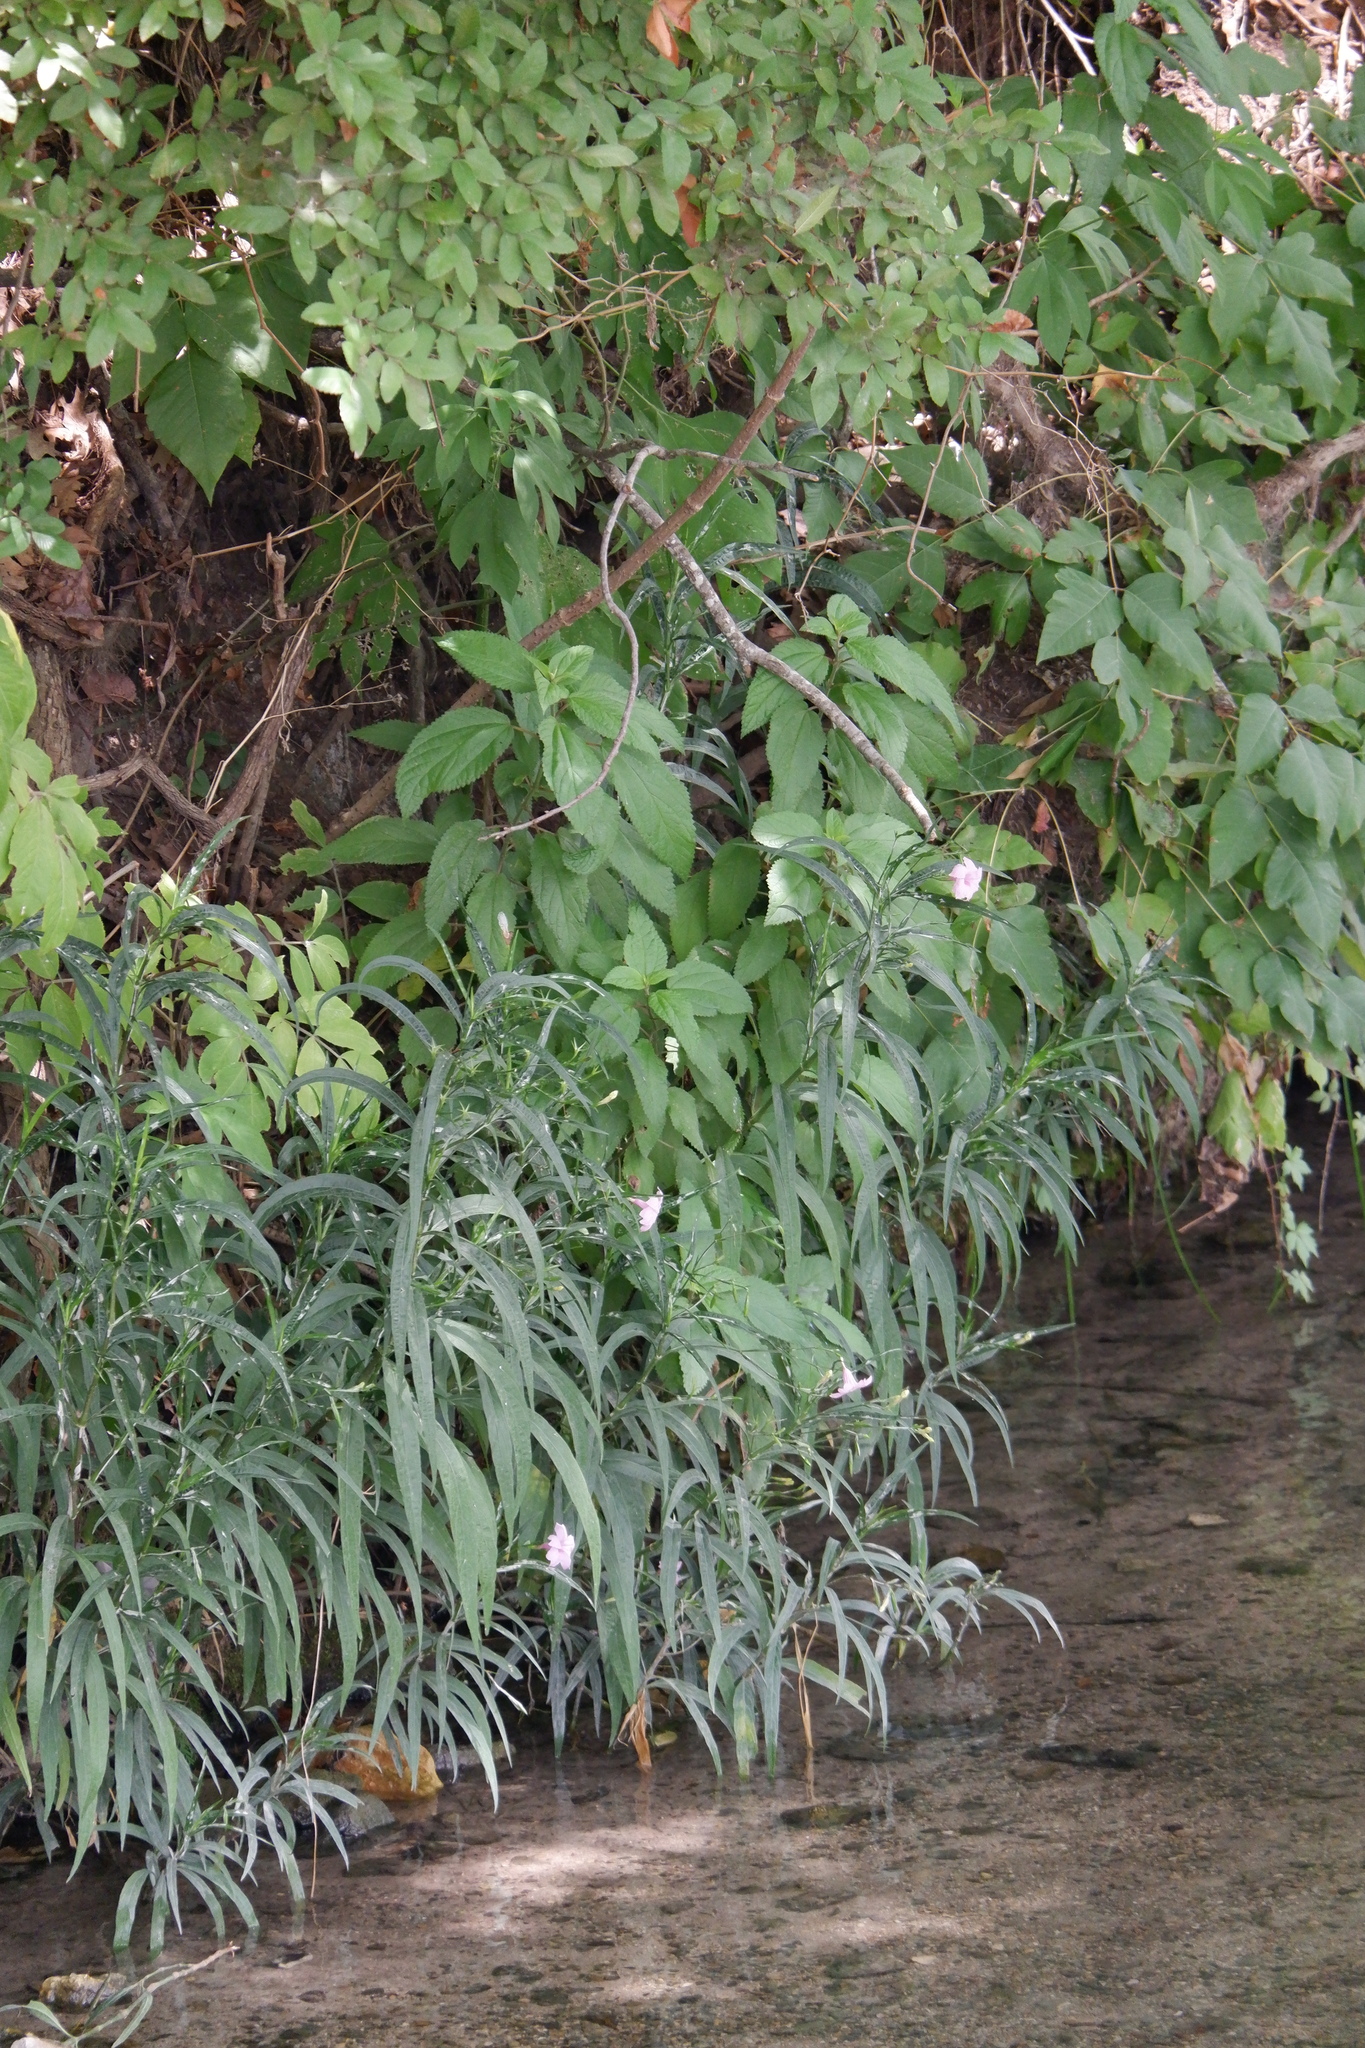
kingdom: Plantae
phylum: Tracheophyta
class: Magnoliopsida
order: Lamiales
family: Acanthaceae
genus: Ruellia
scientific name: Ruellia simplex
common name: Softseed wild petunia
